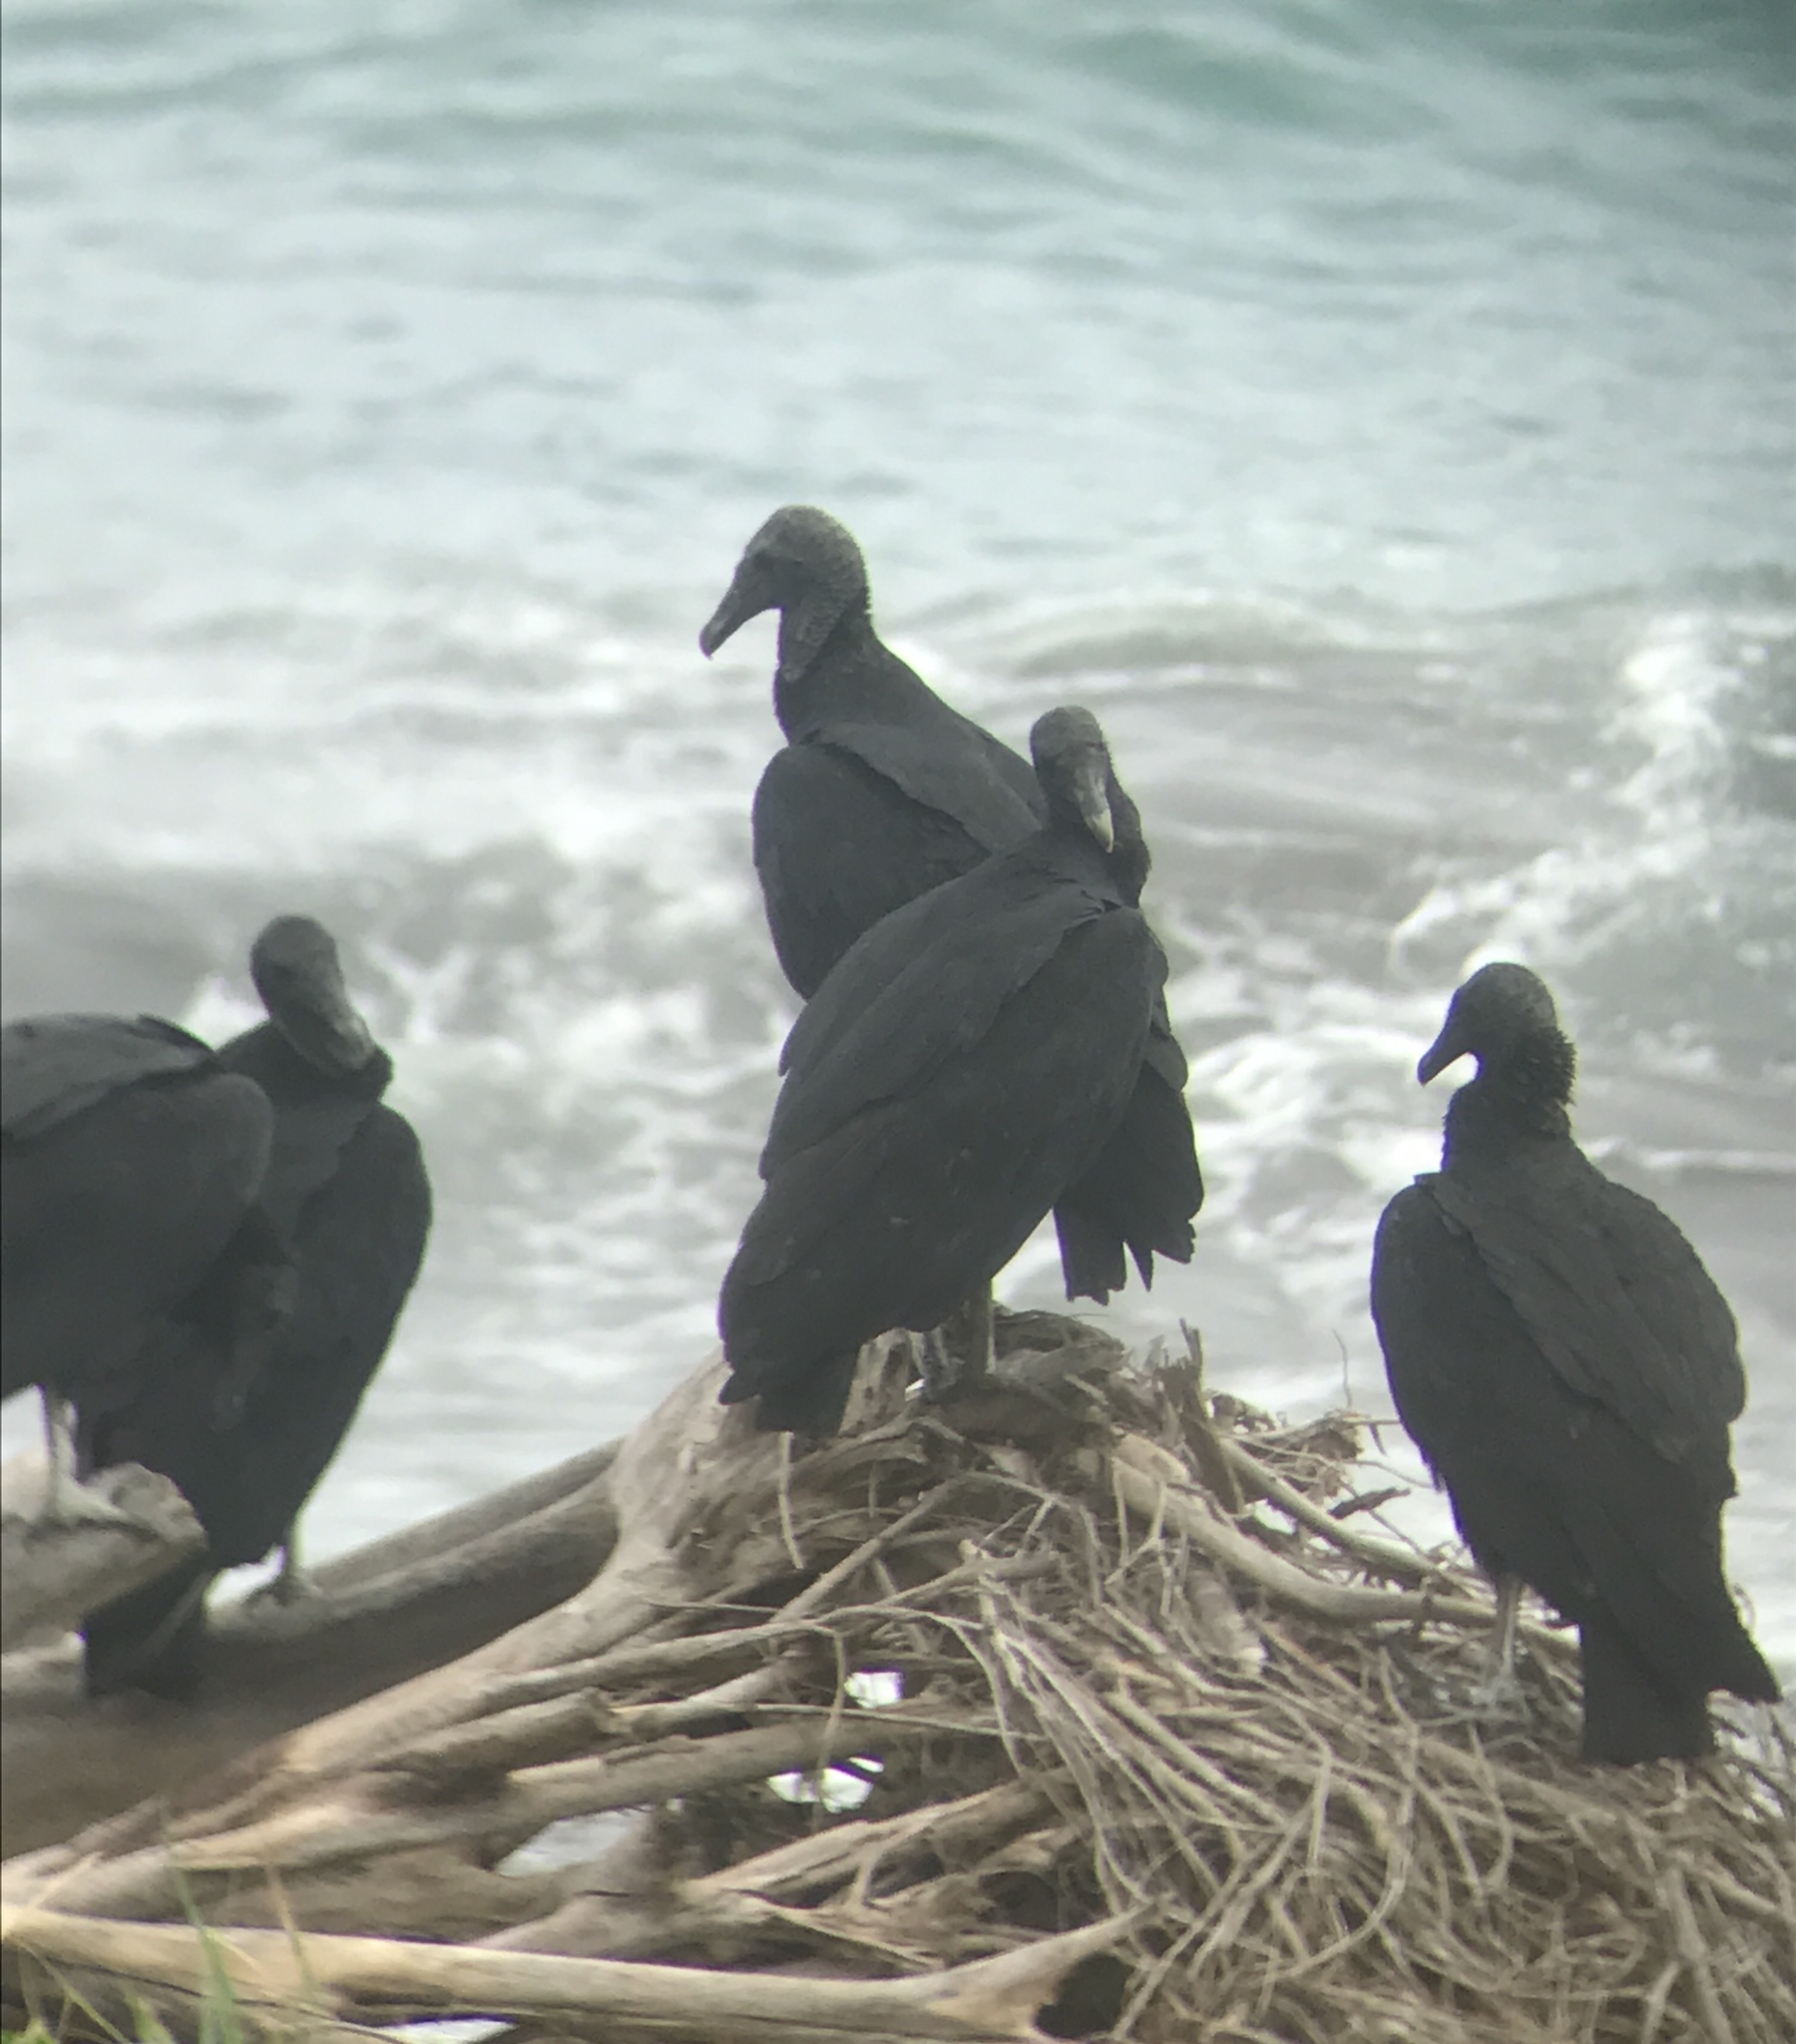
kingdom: Animalia
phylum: Chordata
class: Aves
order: Accipitriformes
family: Cathartidae
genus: Coragyps
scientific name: Coragyps atratus
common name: Black vulture
